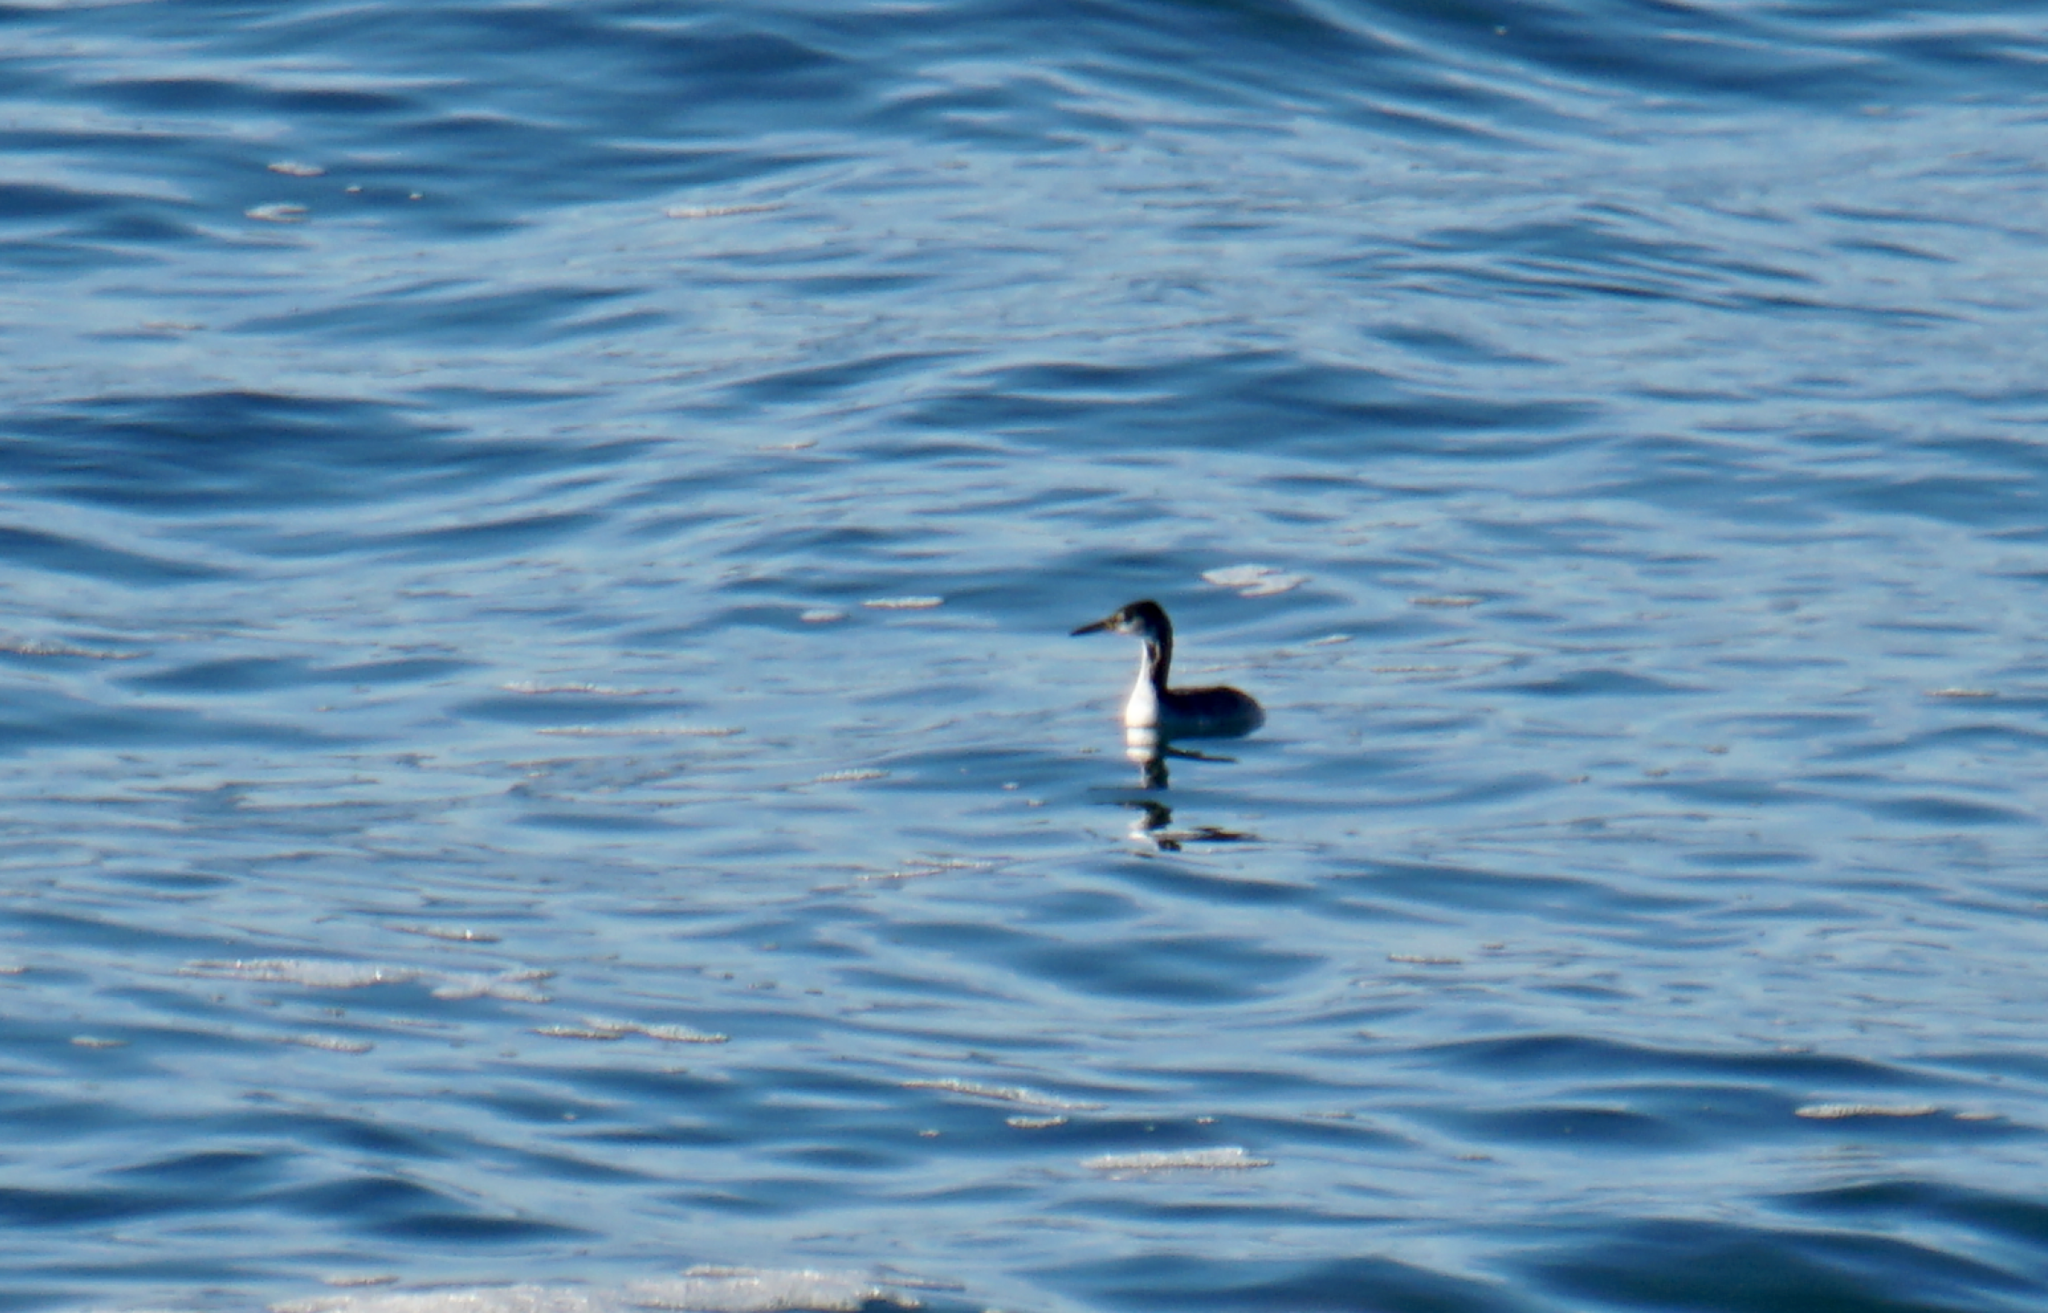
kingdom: Animalia
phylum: Chordata
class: Aves
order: Podicipediformes
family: Podicipedidae
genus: Podiceps
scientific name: Podiceps grisegena
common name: Red-necked grebe
